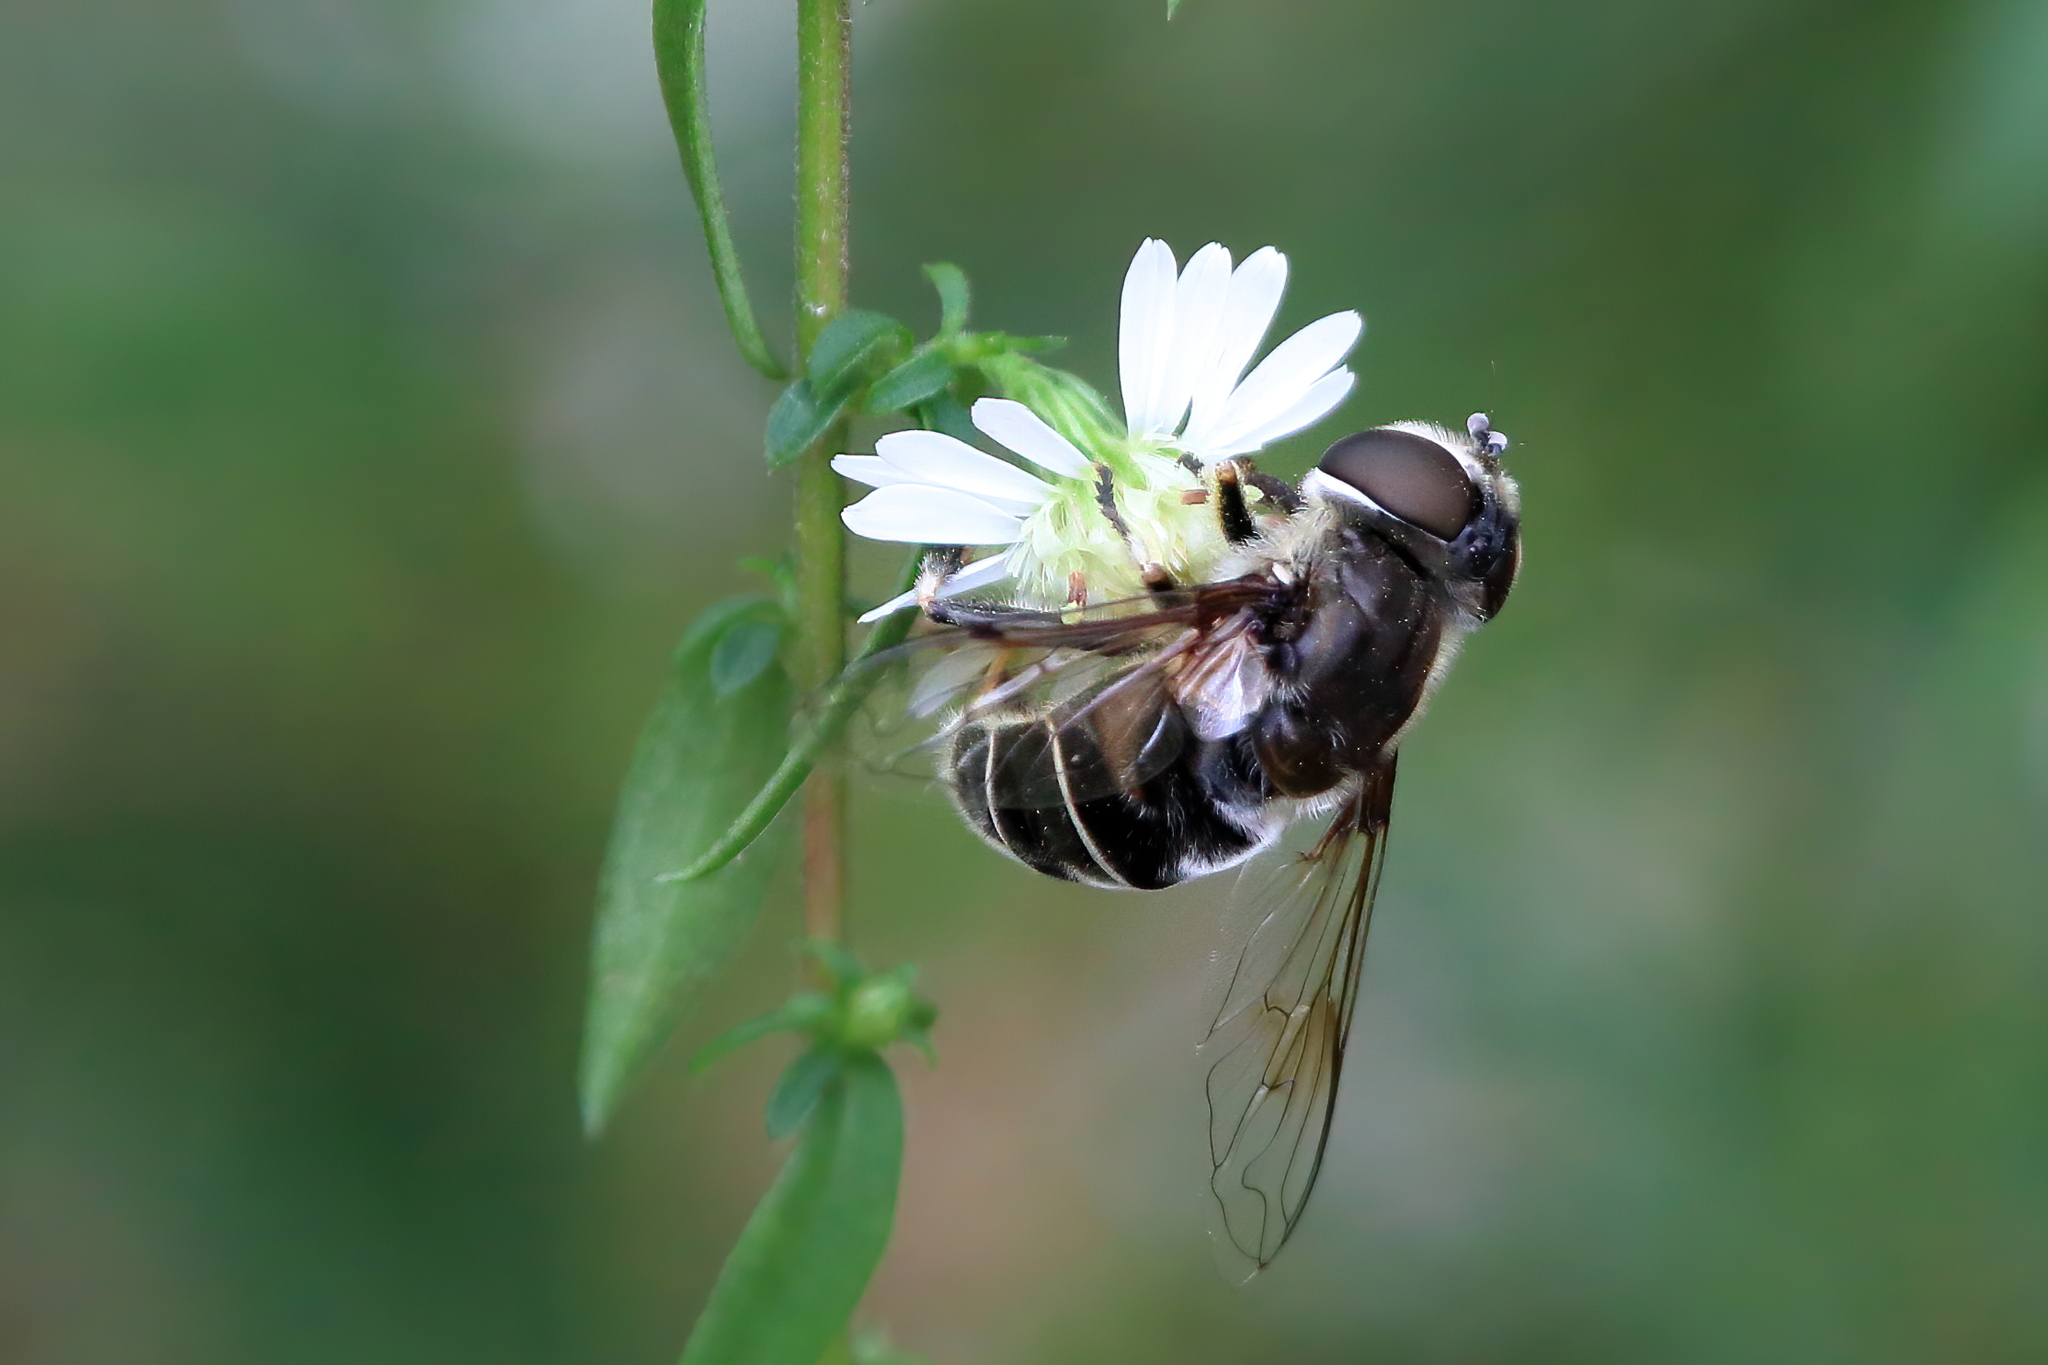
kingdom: Animalia
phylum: Arthropoda
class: Insecta
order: Diptera
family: Syrphidae
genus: Eristalis
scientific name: Eristalis dimidiata
